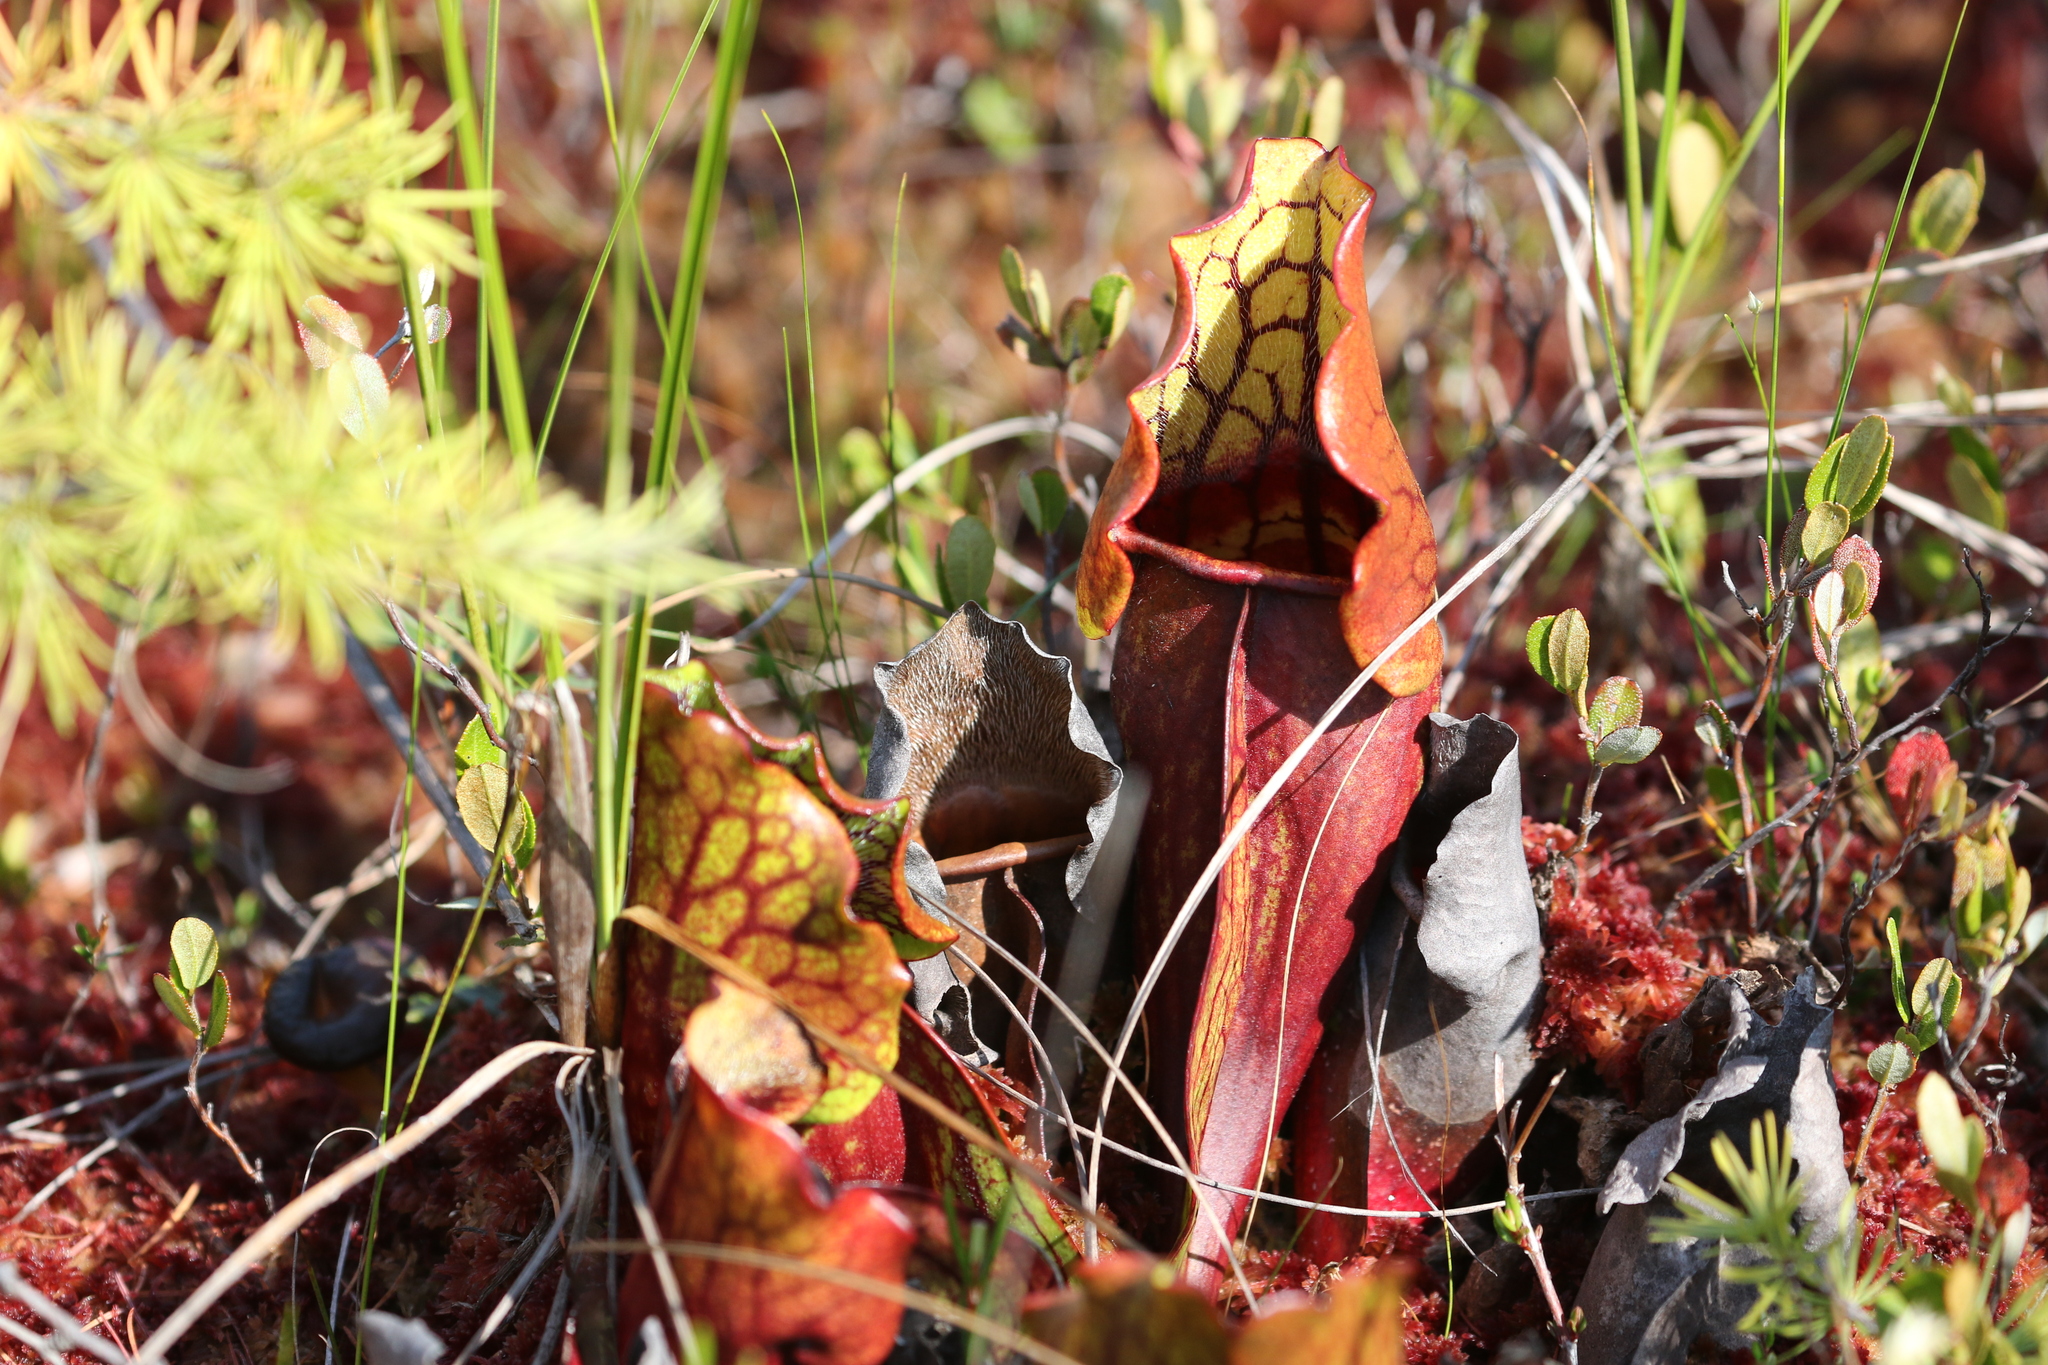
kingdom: Plantae
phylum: Tracheophyta
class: Magnoliopsida
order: Ericales
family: Sarraceniaceae
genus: Sarracenia
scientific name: Sarracenia purpurea
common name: Pitcherplant
